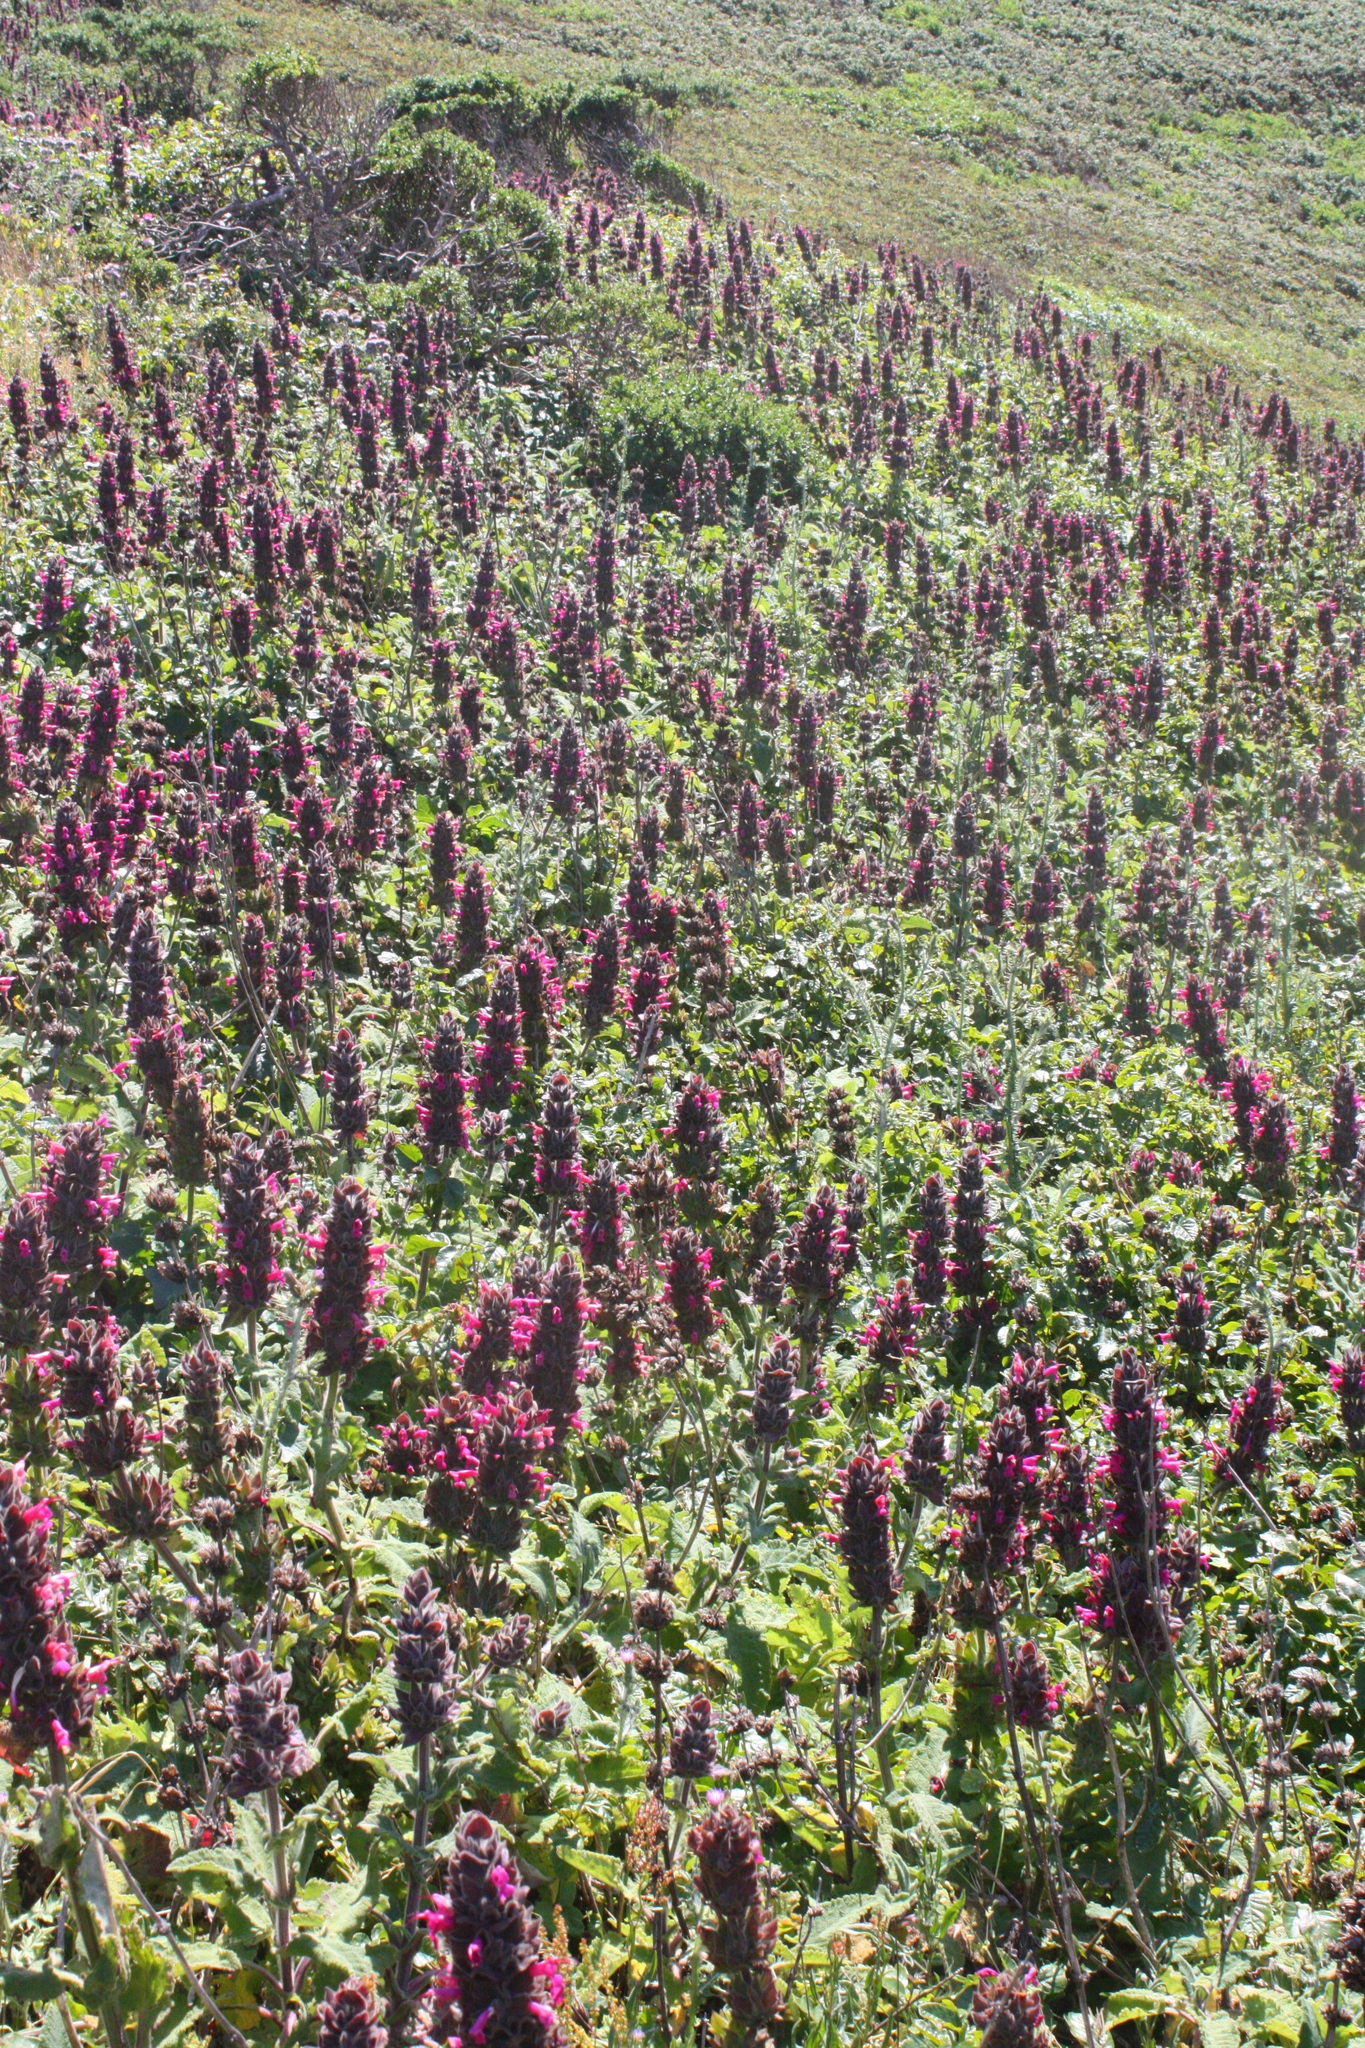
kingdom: Plantae
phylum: Tracheophyta
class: Magnoliopsida
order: Lamiales
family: Lamiaceae
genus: Salvia
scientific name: Salvia spathacea
